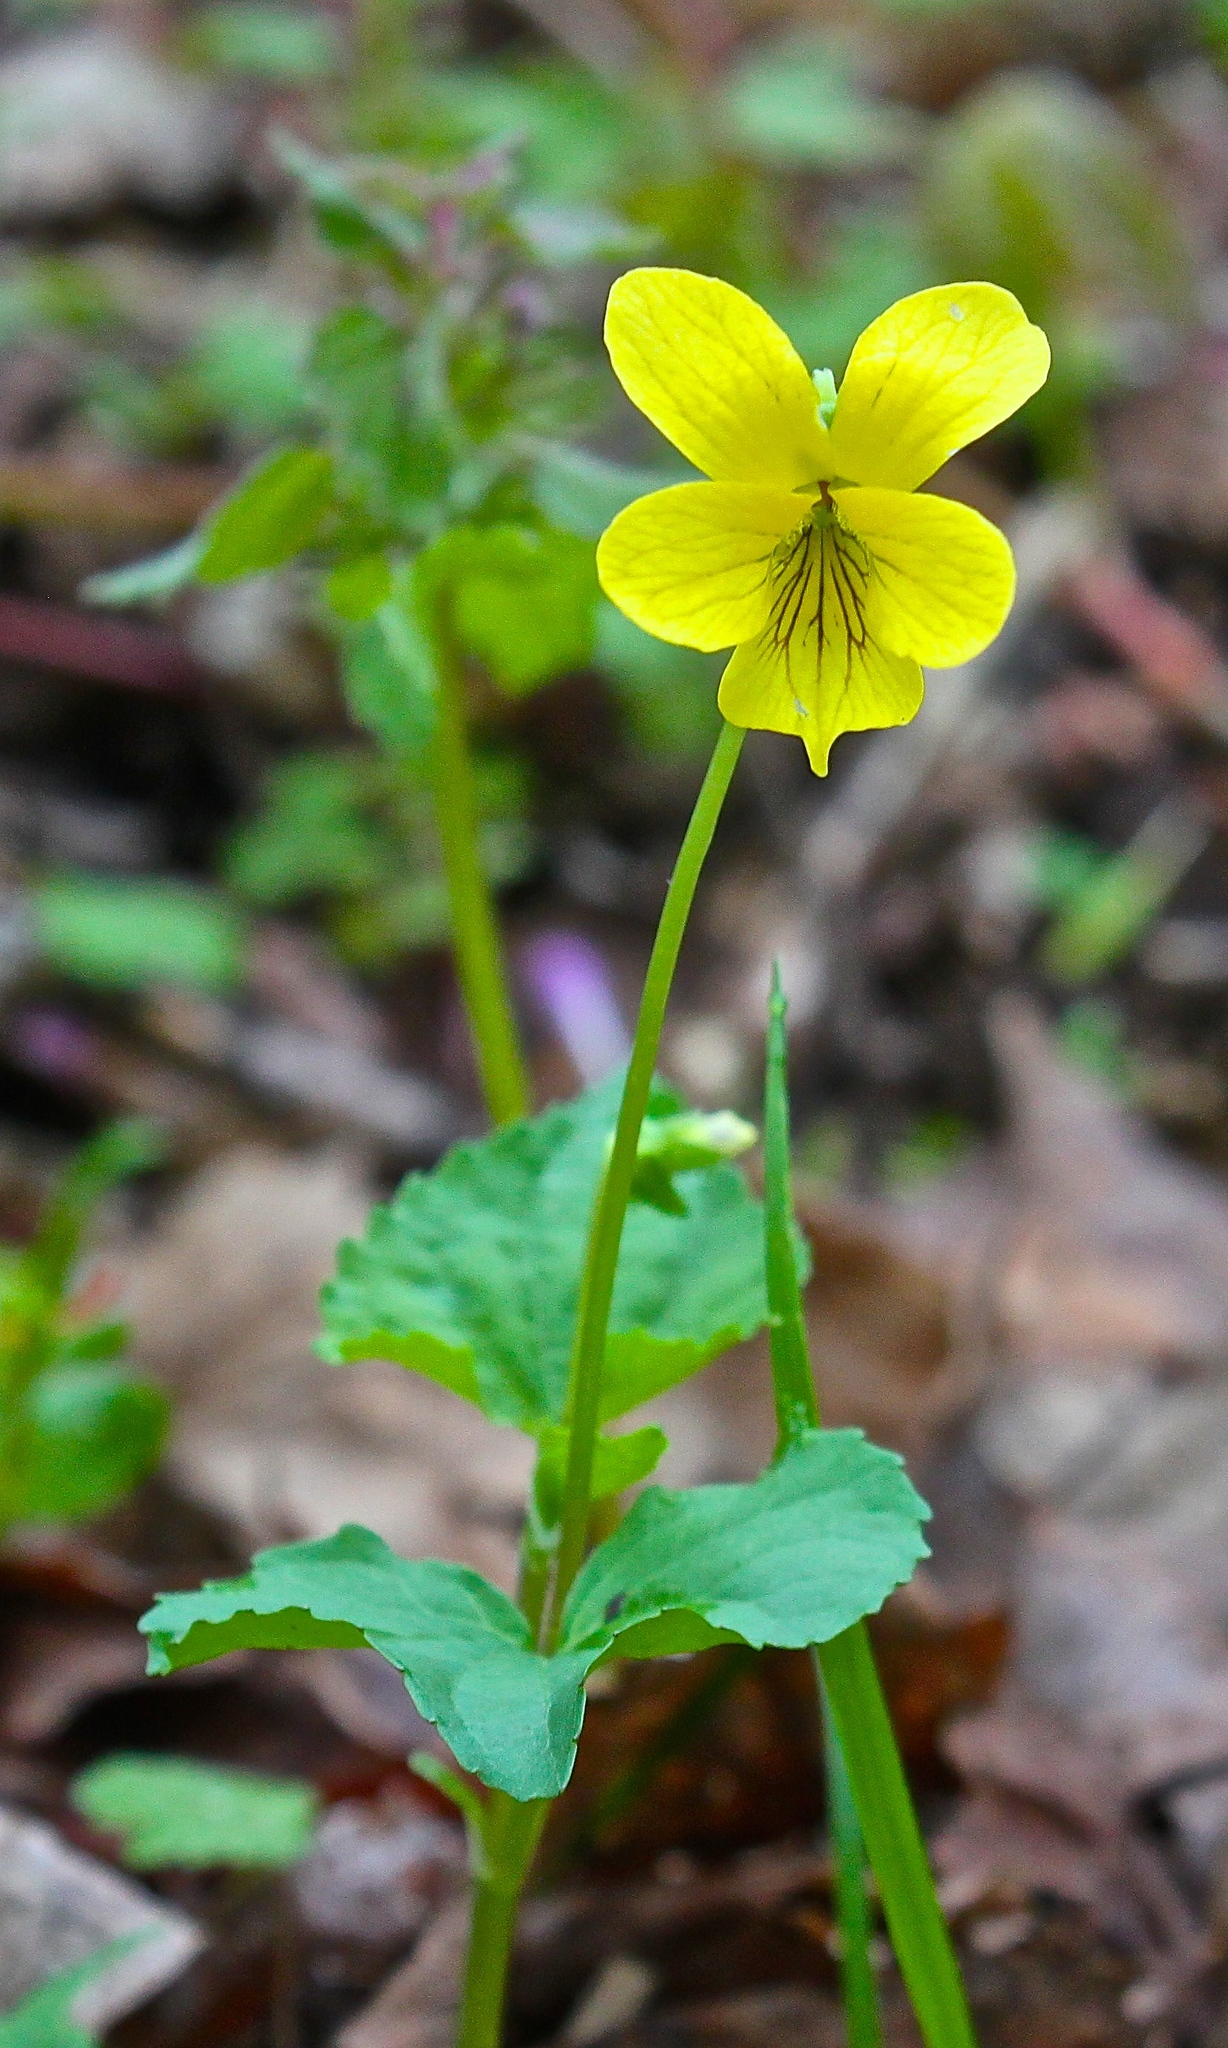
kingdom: Plantae
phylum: Tracheophyta
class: Magnoliopsida
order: Malpighiales
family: Violaceae
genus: Viola
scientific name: Viola eriocarpa
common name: Smooth yellow violet
